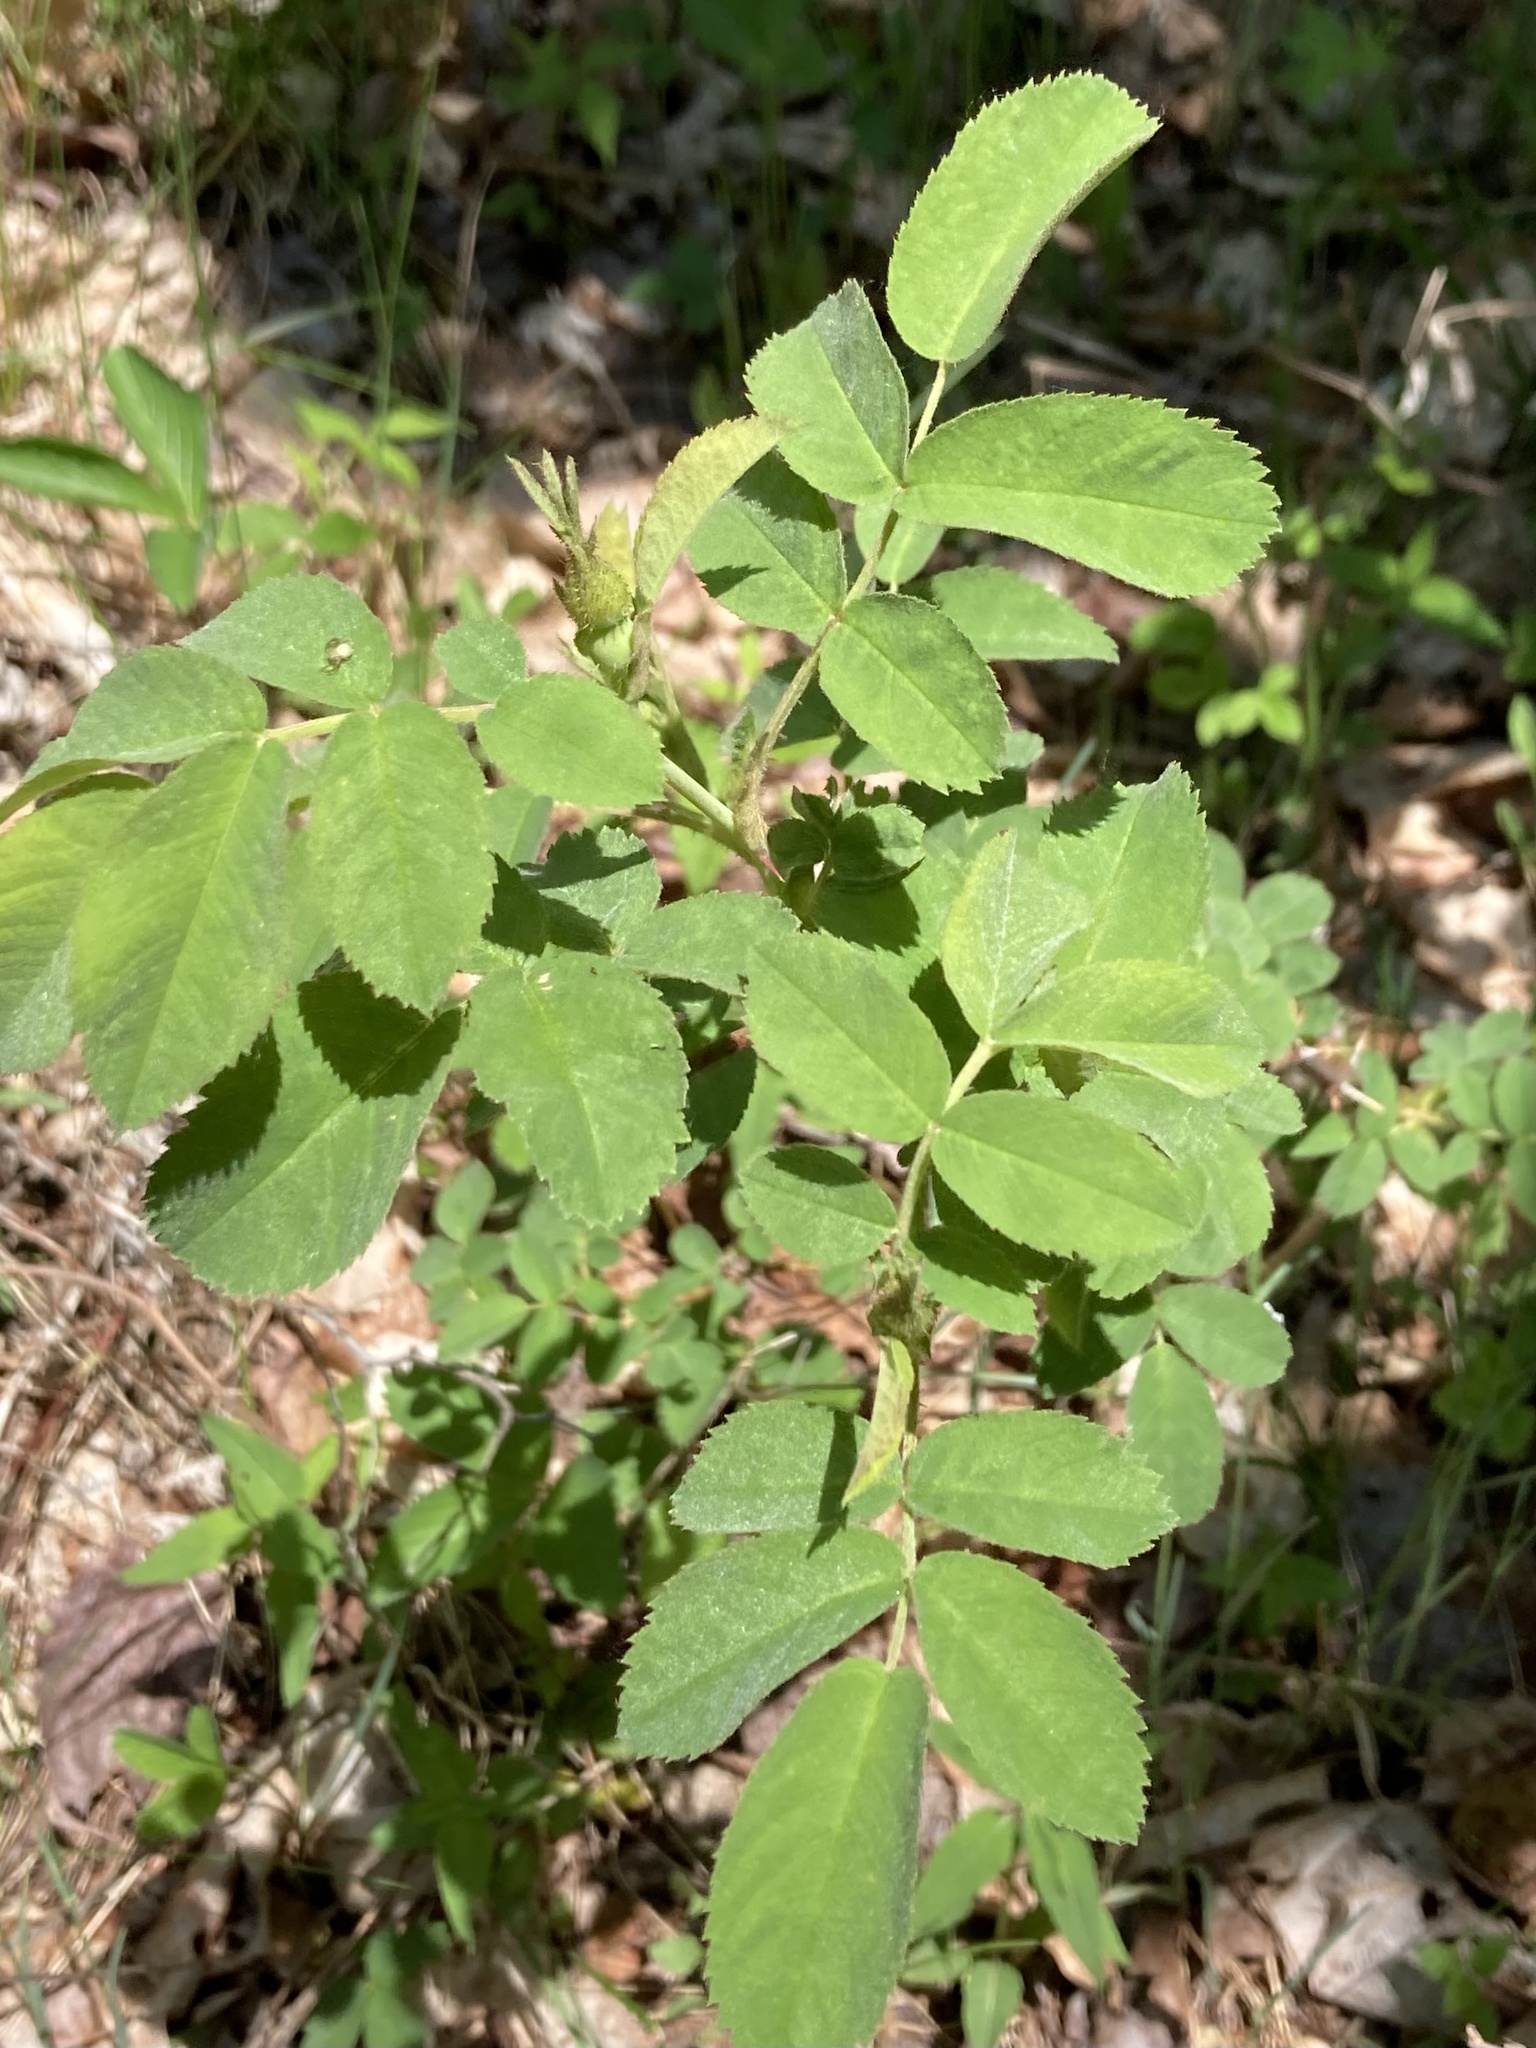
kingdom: Plantae
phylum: Tracheophyta
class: Magnoliopsida
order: Rosales
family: Rosaceae
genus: Rosa
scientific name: Rosa sherardii
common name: Sherard's downy rose
